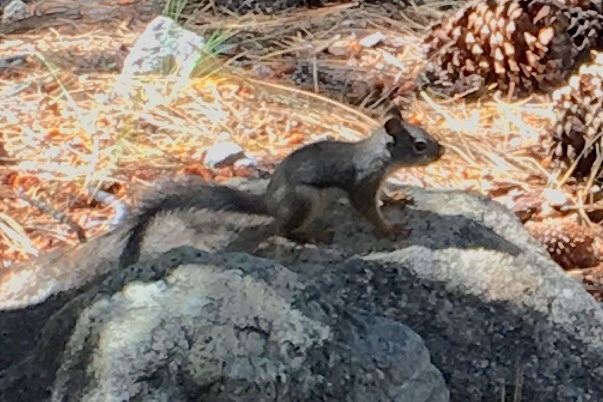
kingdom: Animalia
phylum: Chordata
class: Mammalia
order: Rodentia
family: Sciuridae
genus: Tamiasciurus
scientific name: Tamiasciurus douglasii
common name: Douglas's squirrel
